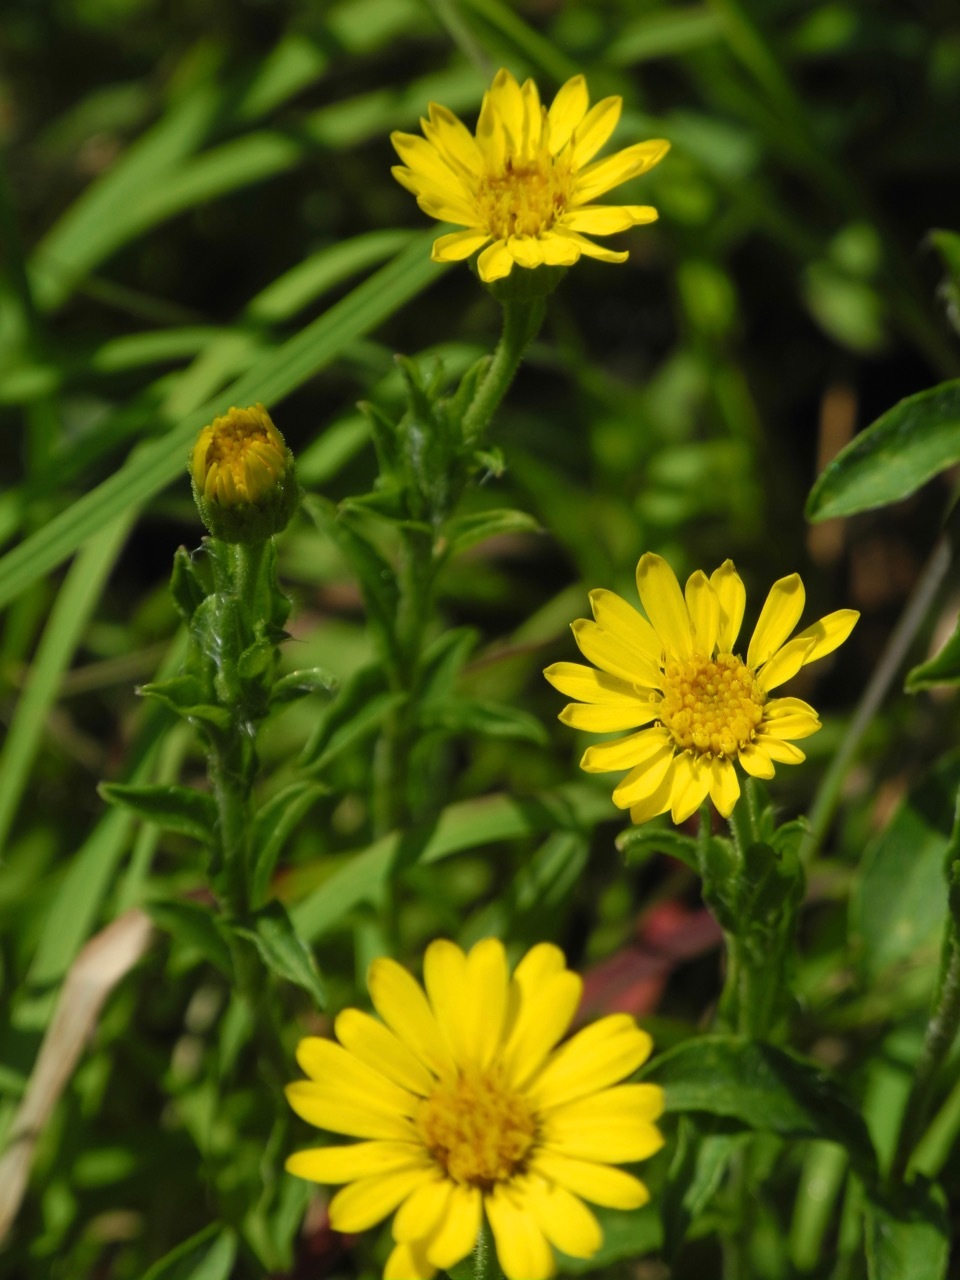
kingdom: Plantae
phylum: Tracheophyta
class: Magnoliopsida
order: Asterales
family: Asteraceae
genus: Chrysopsis
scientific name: Chrysopsis mariana
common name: Maryland golden-aster
